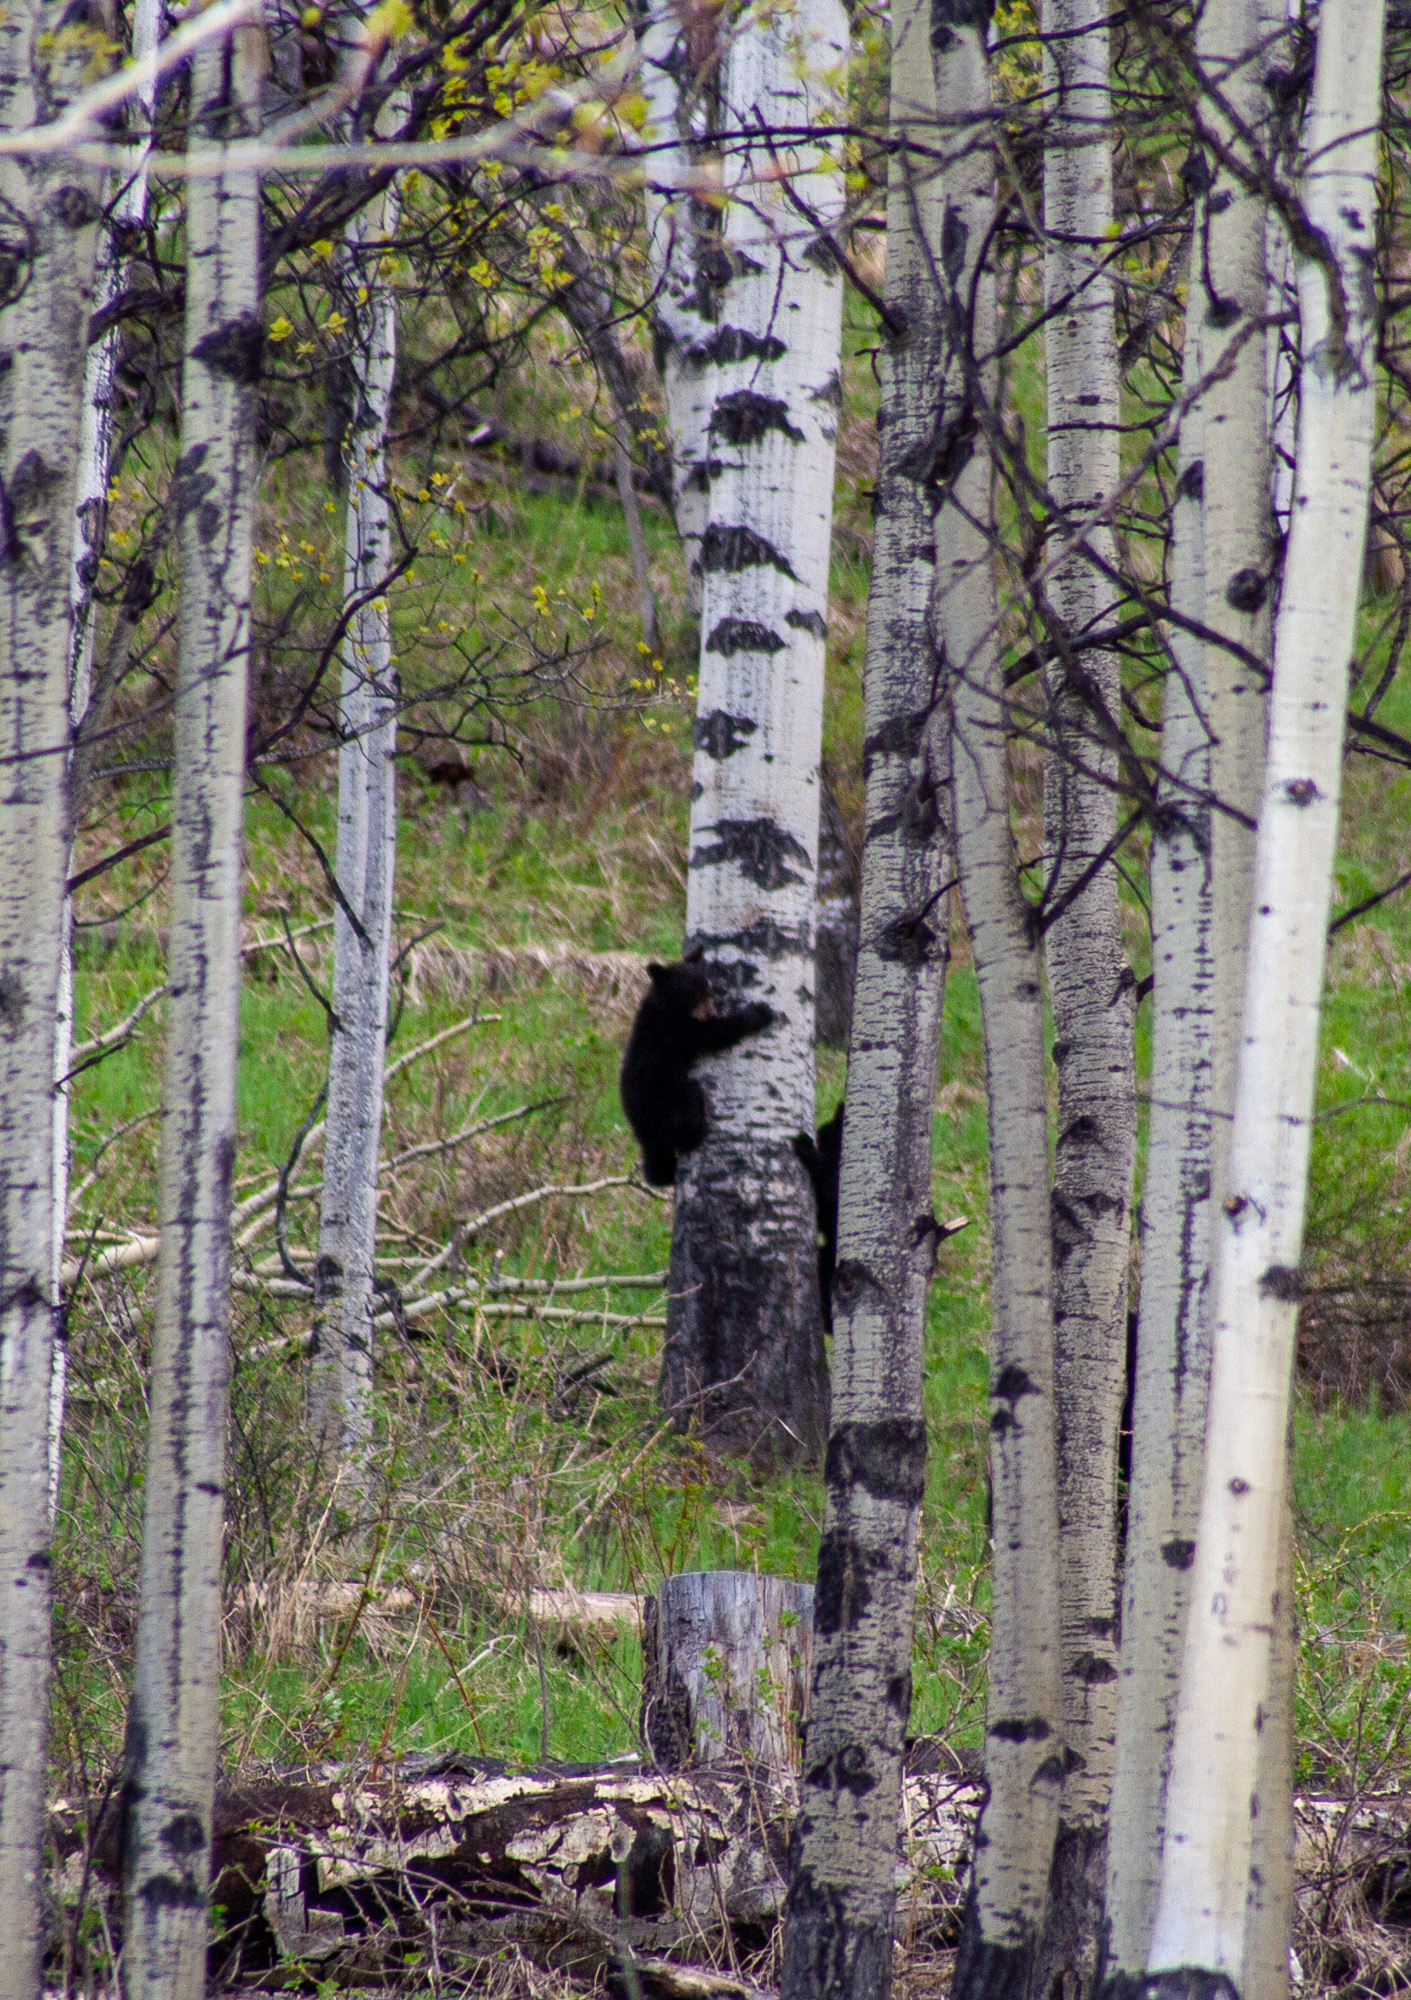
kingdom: Animalia
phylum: Chordata
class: Mammalia
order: Carnivora
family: Ursidae
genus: Ursus
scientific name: Ursus americanus
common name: American black bear
